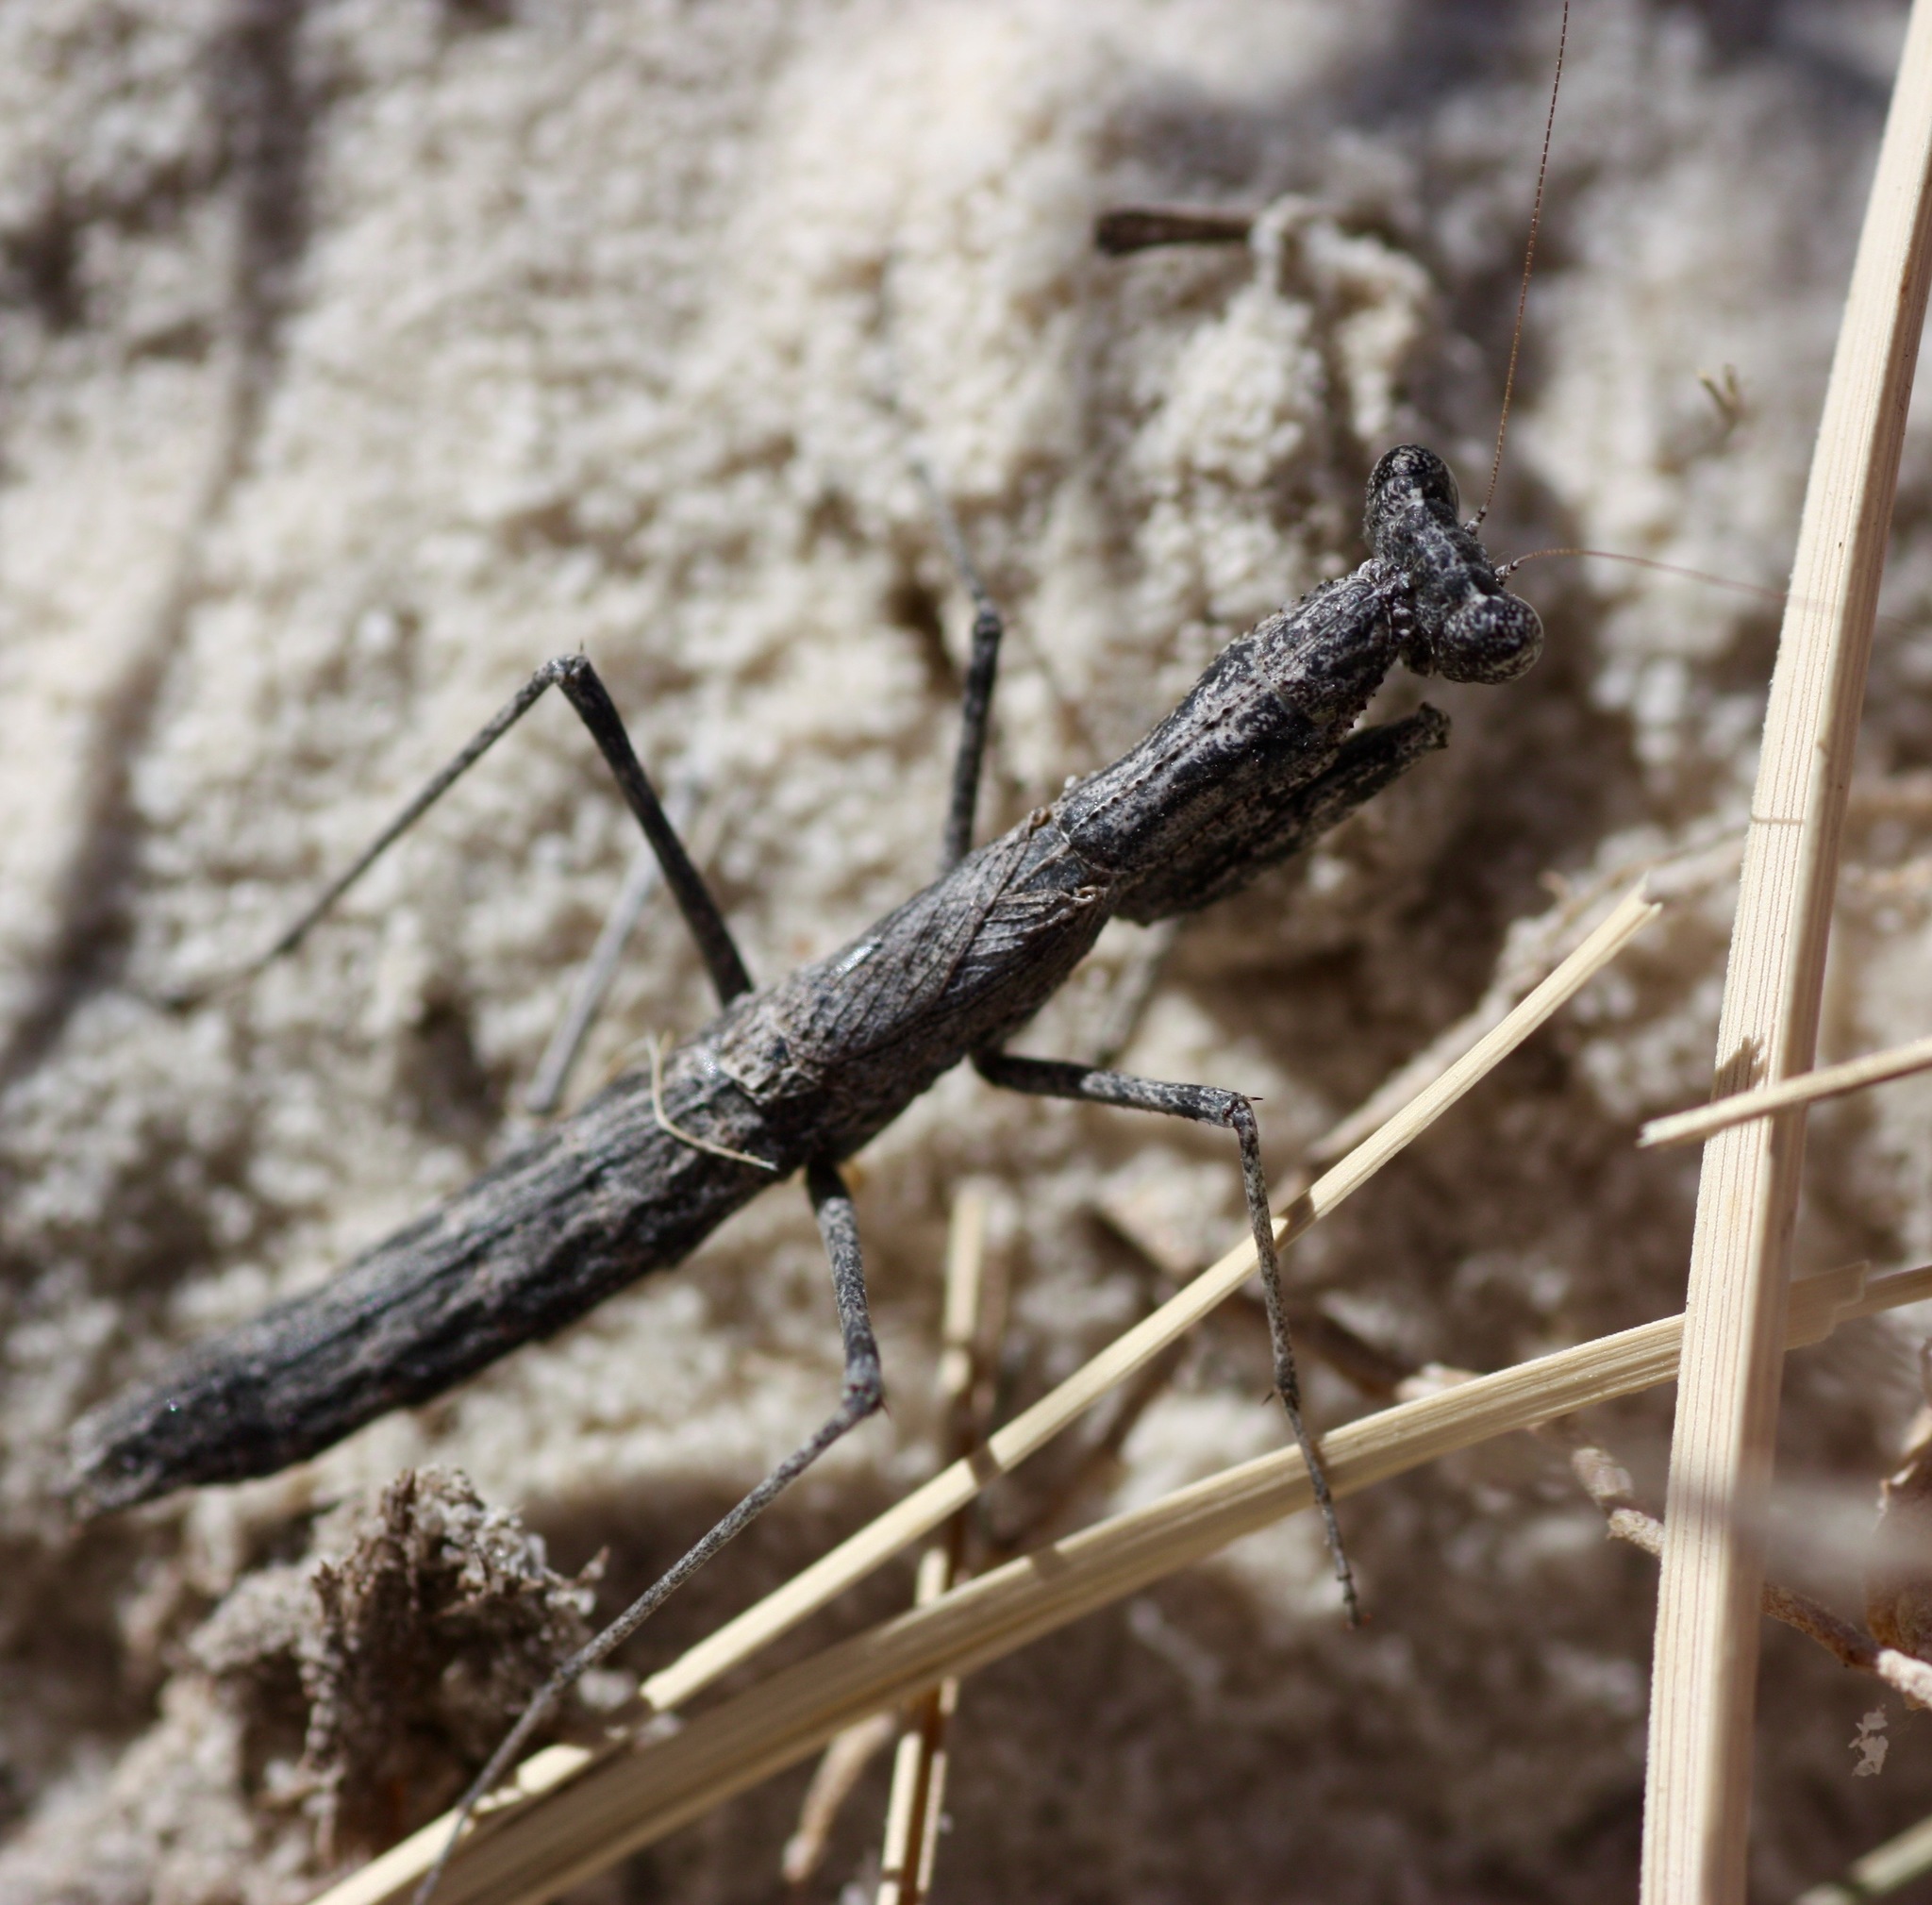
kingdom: Animalia
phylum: Arthropoda
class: Insecta
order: Mantodea
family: Amelidae
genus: Litaneutria
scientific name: Litaneutria minor
